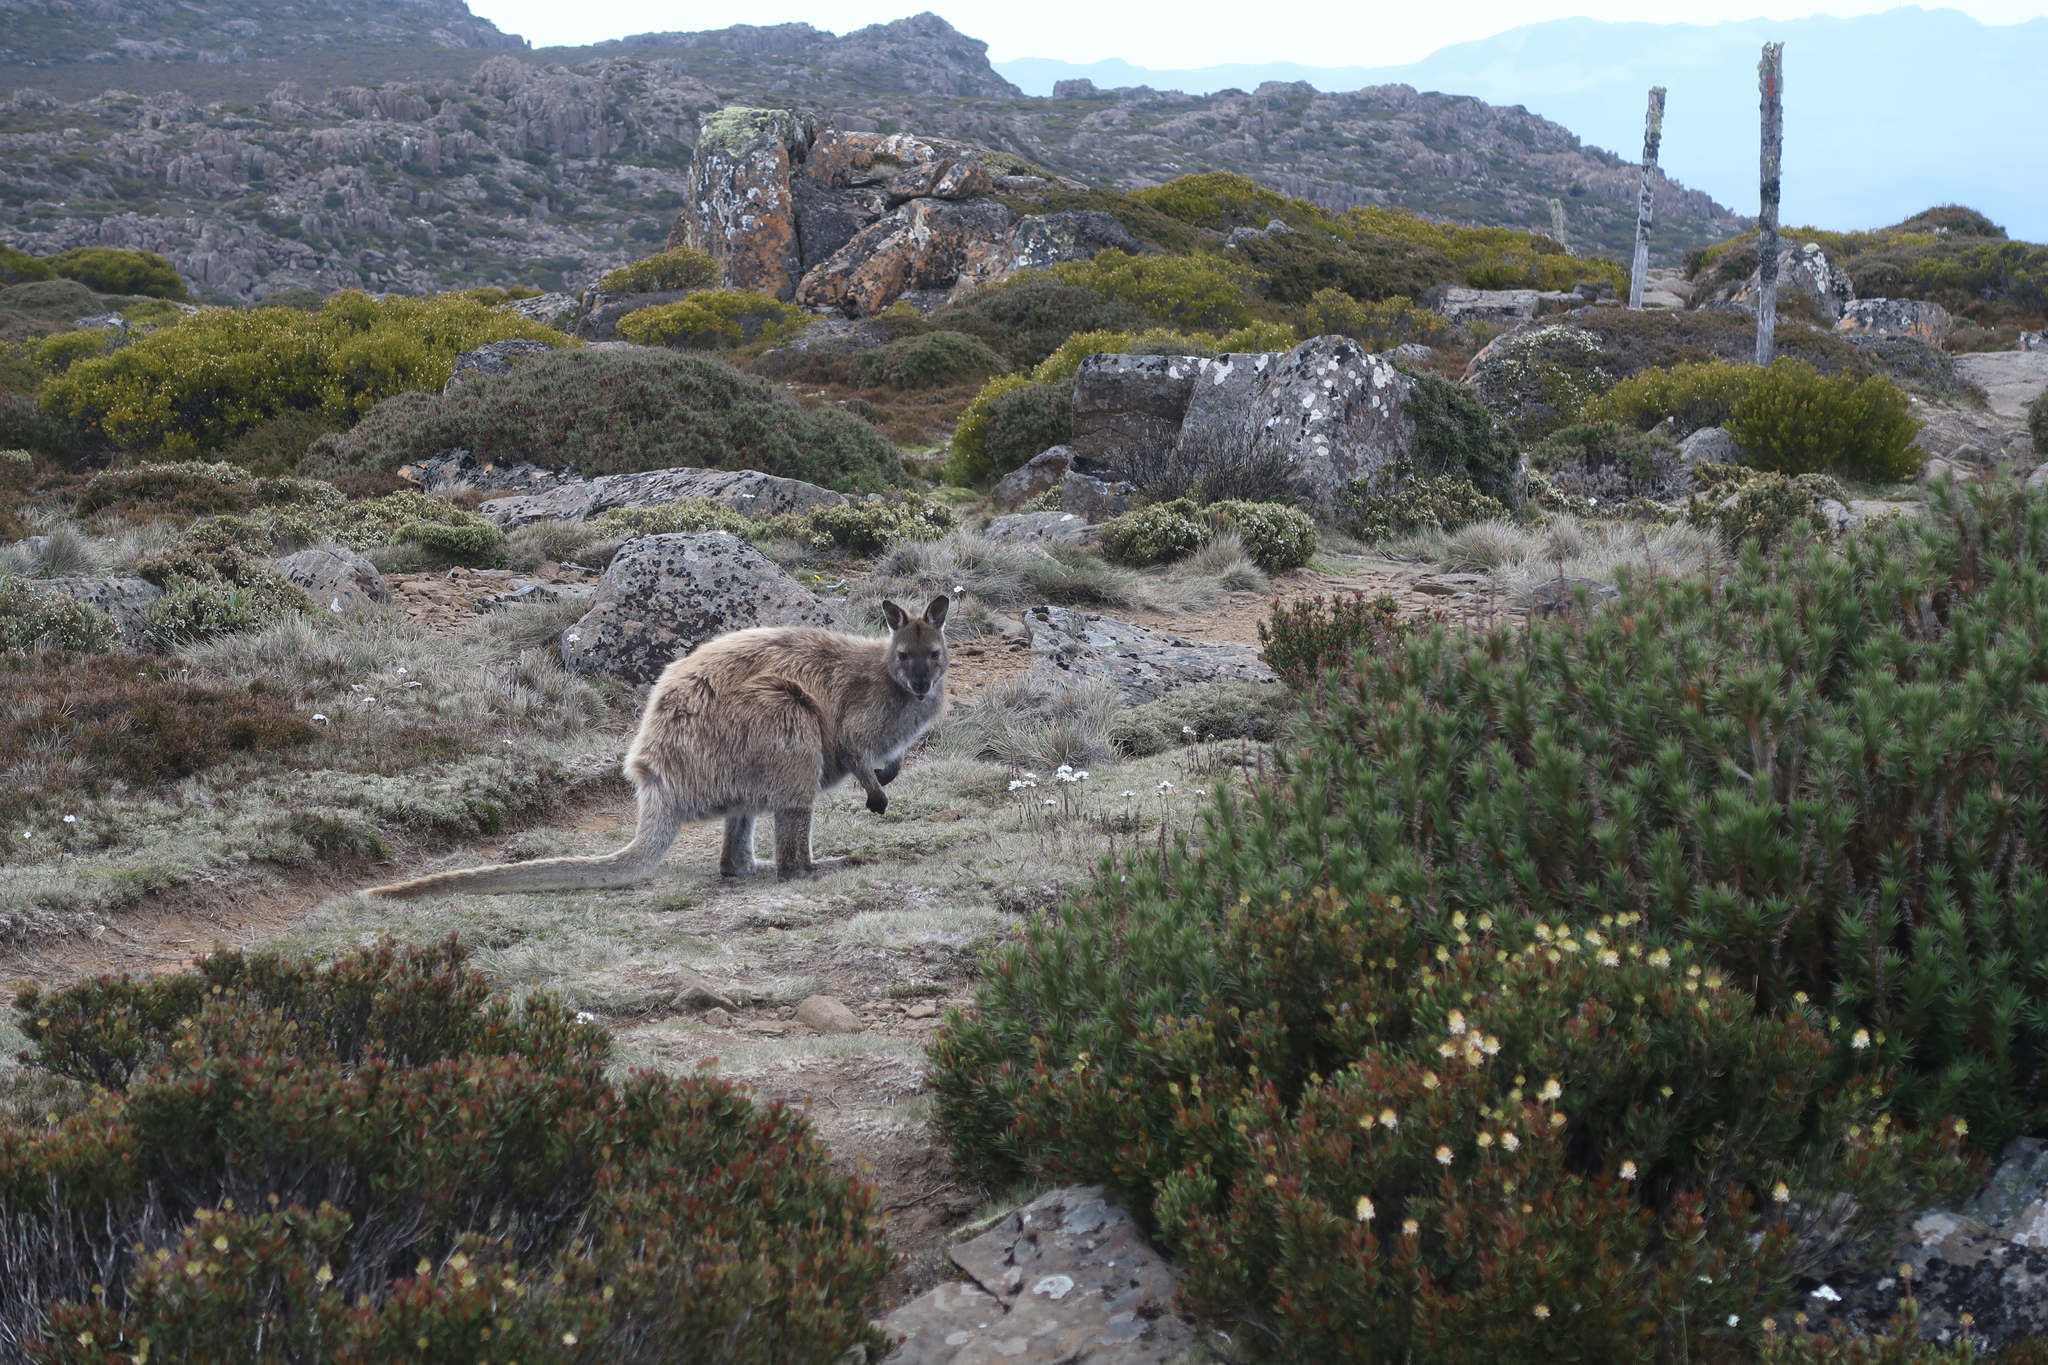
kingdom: Animalia
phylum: Chordata
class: Mammalia
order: Diprotodontia
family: Macropodidae
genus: Notamacropus
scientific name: Notamacropus rufogriseus
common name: Red-necked wallaby
